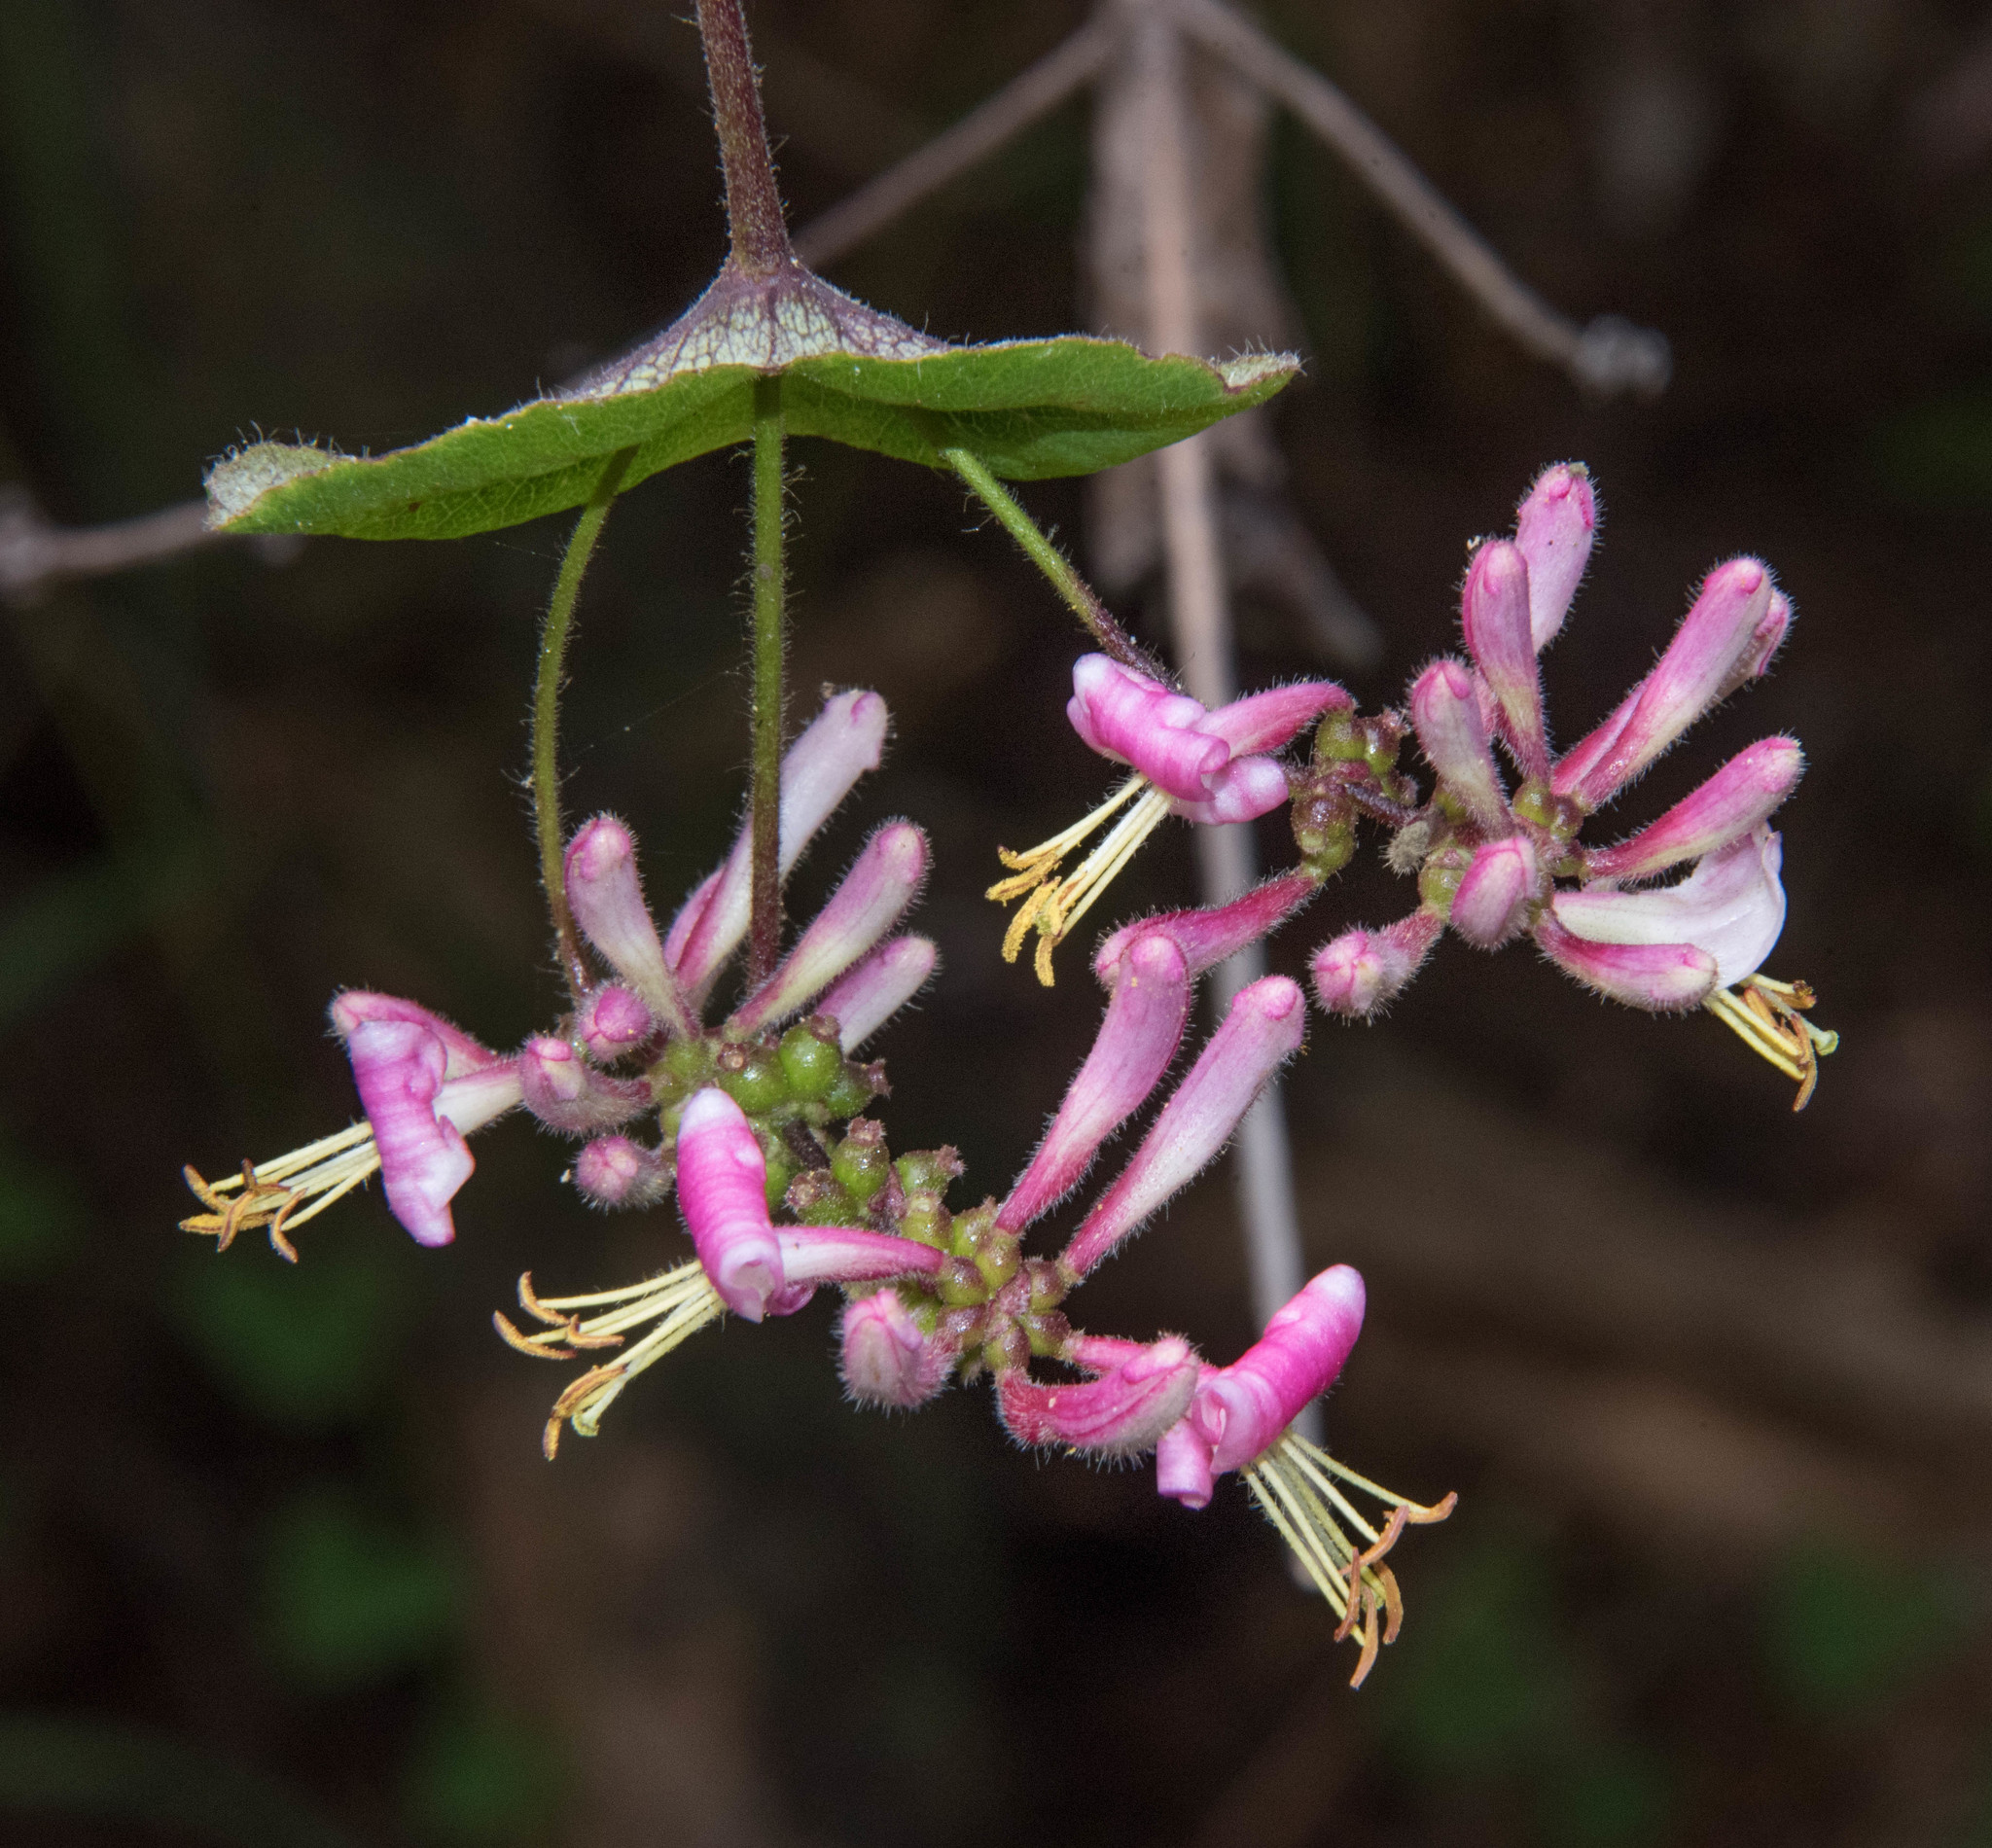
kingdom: Plantae
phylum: Tracheophyta
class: Magnoliopsida
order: Dipsacales
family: Caprifoliaceae
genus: Lonicera
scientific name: Lonicera hispidula
